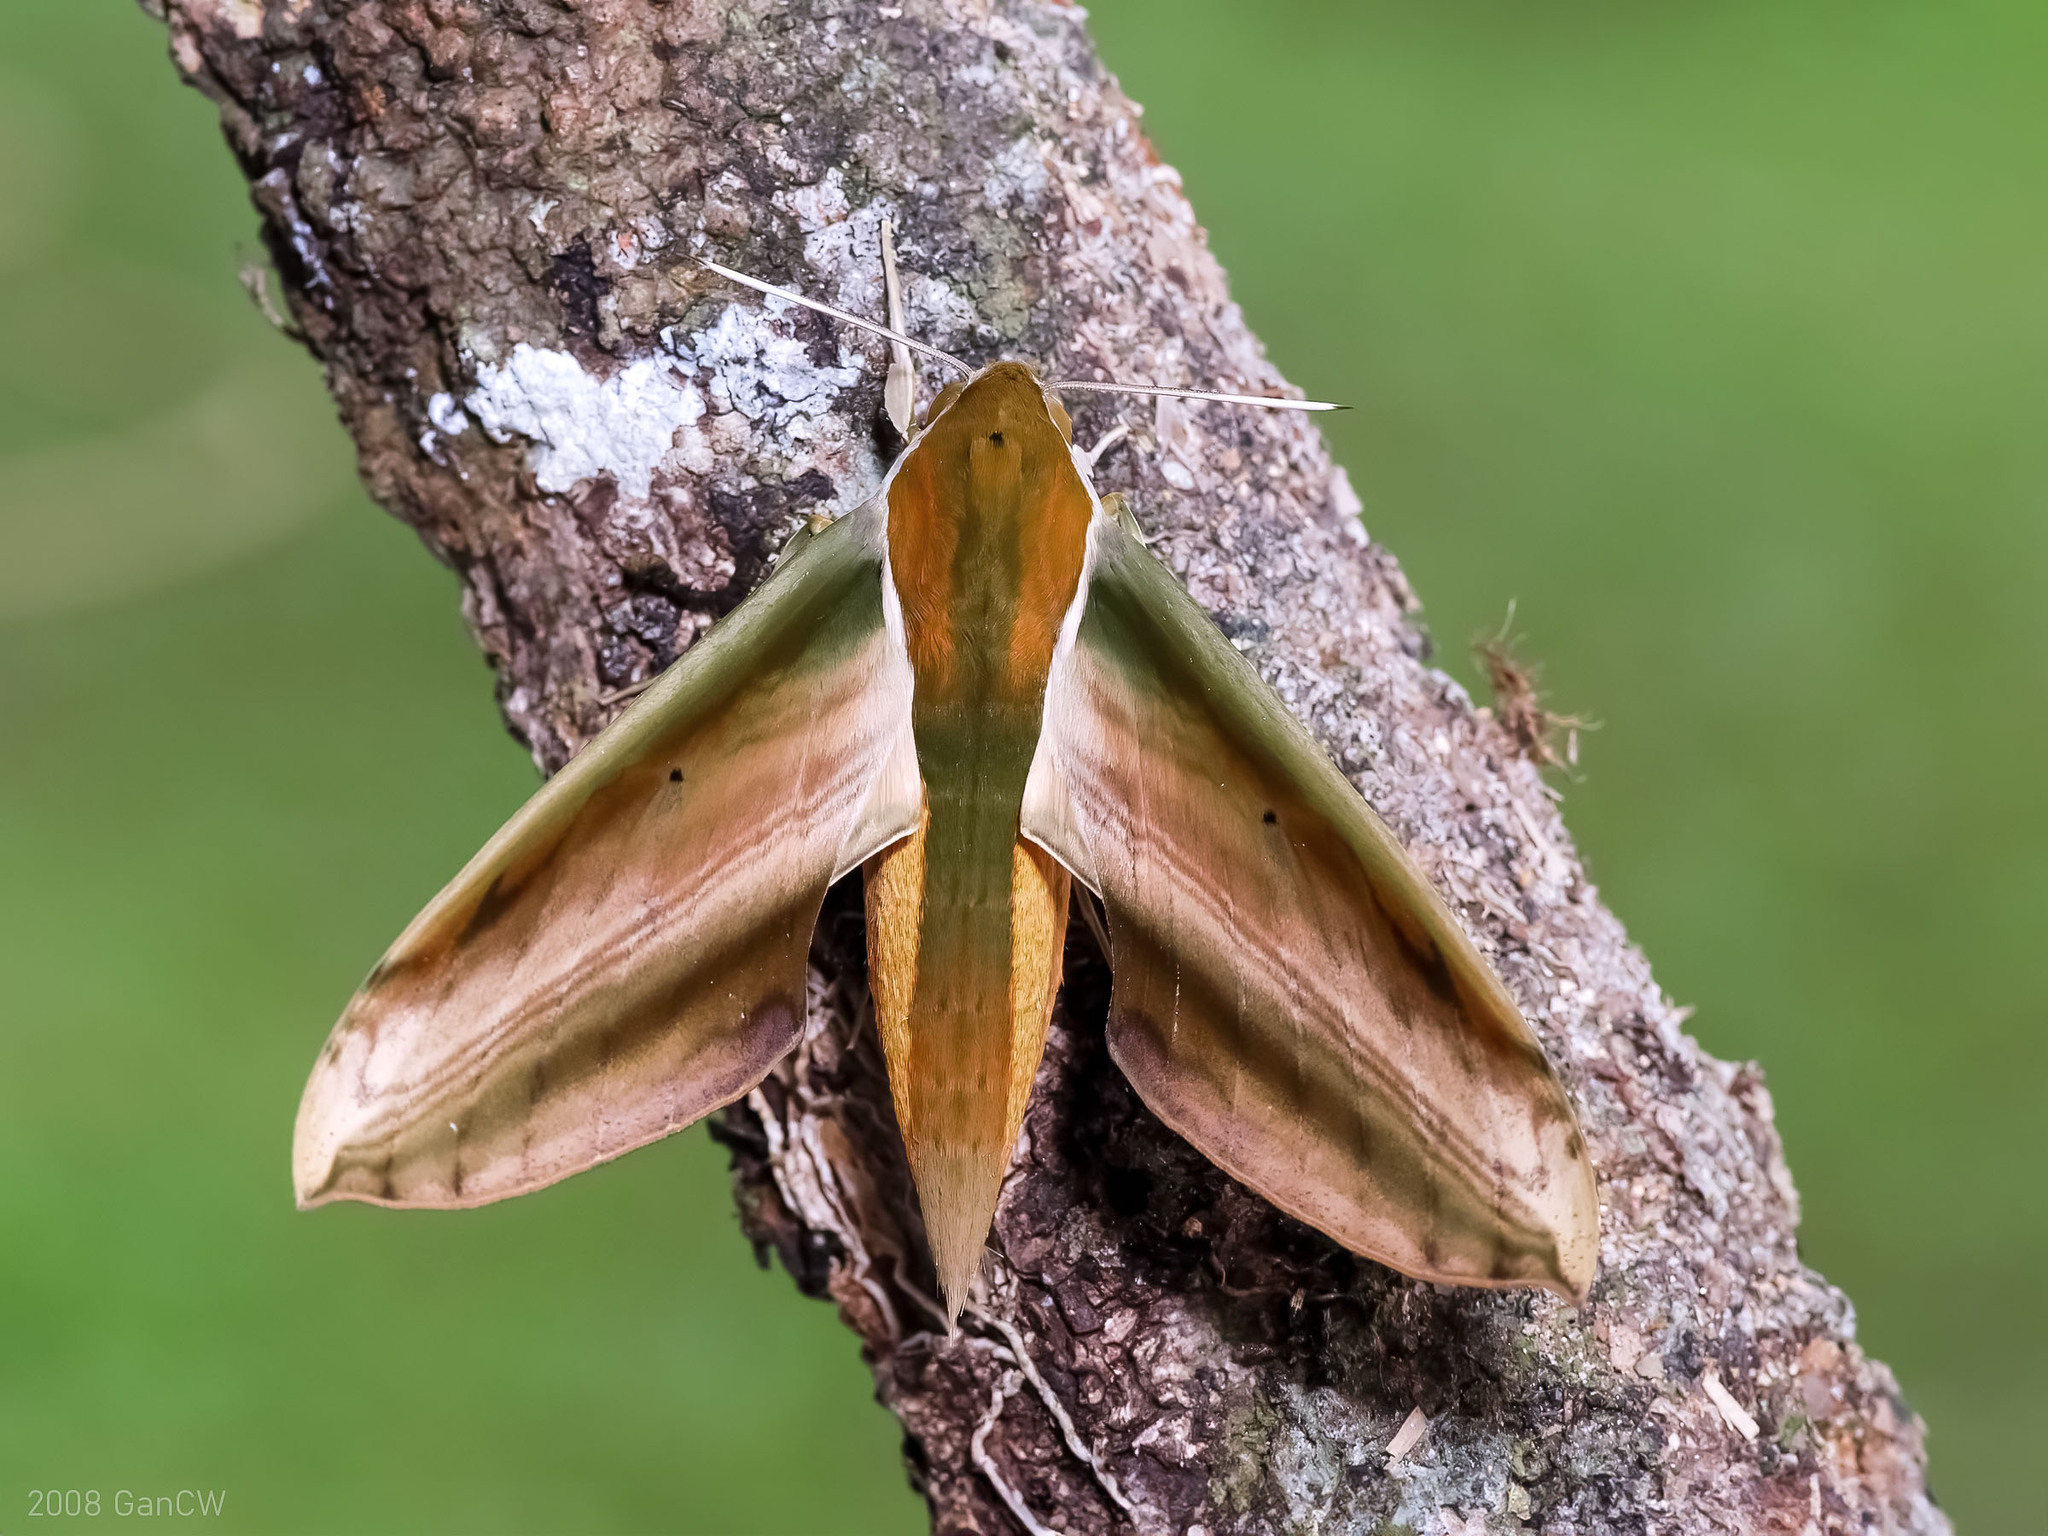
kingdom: Animalia
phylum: Arthropoda
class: Insecta
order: Lepidoptera
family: Sphingidae
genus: Theretra
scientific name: Theretra nessus
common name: Yam hawk moth
